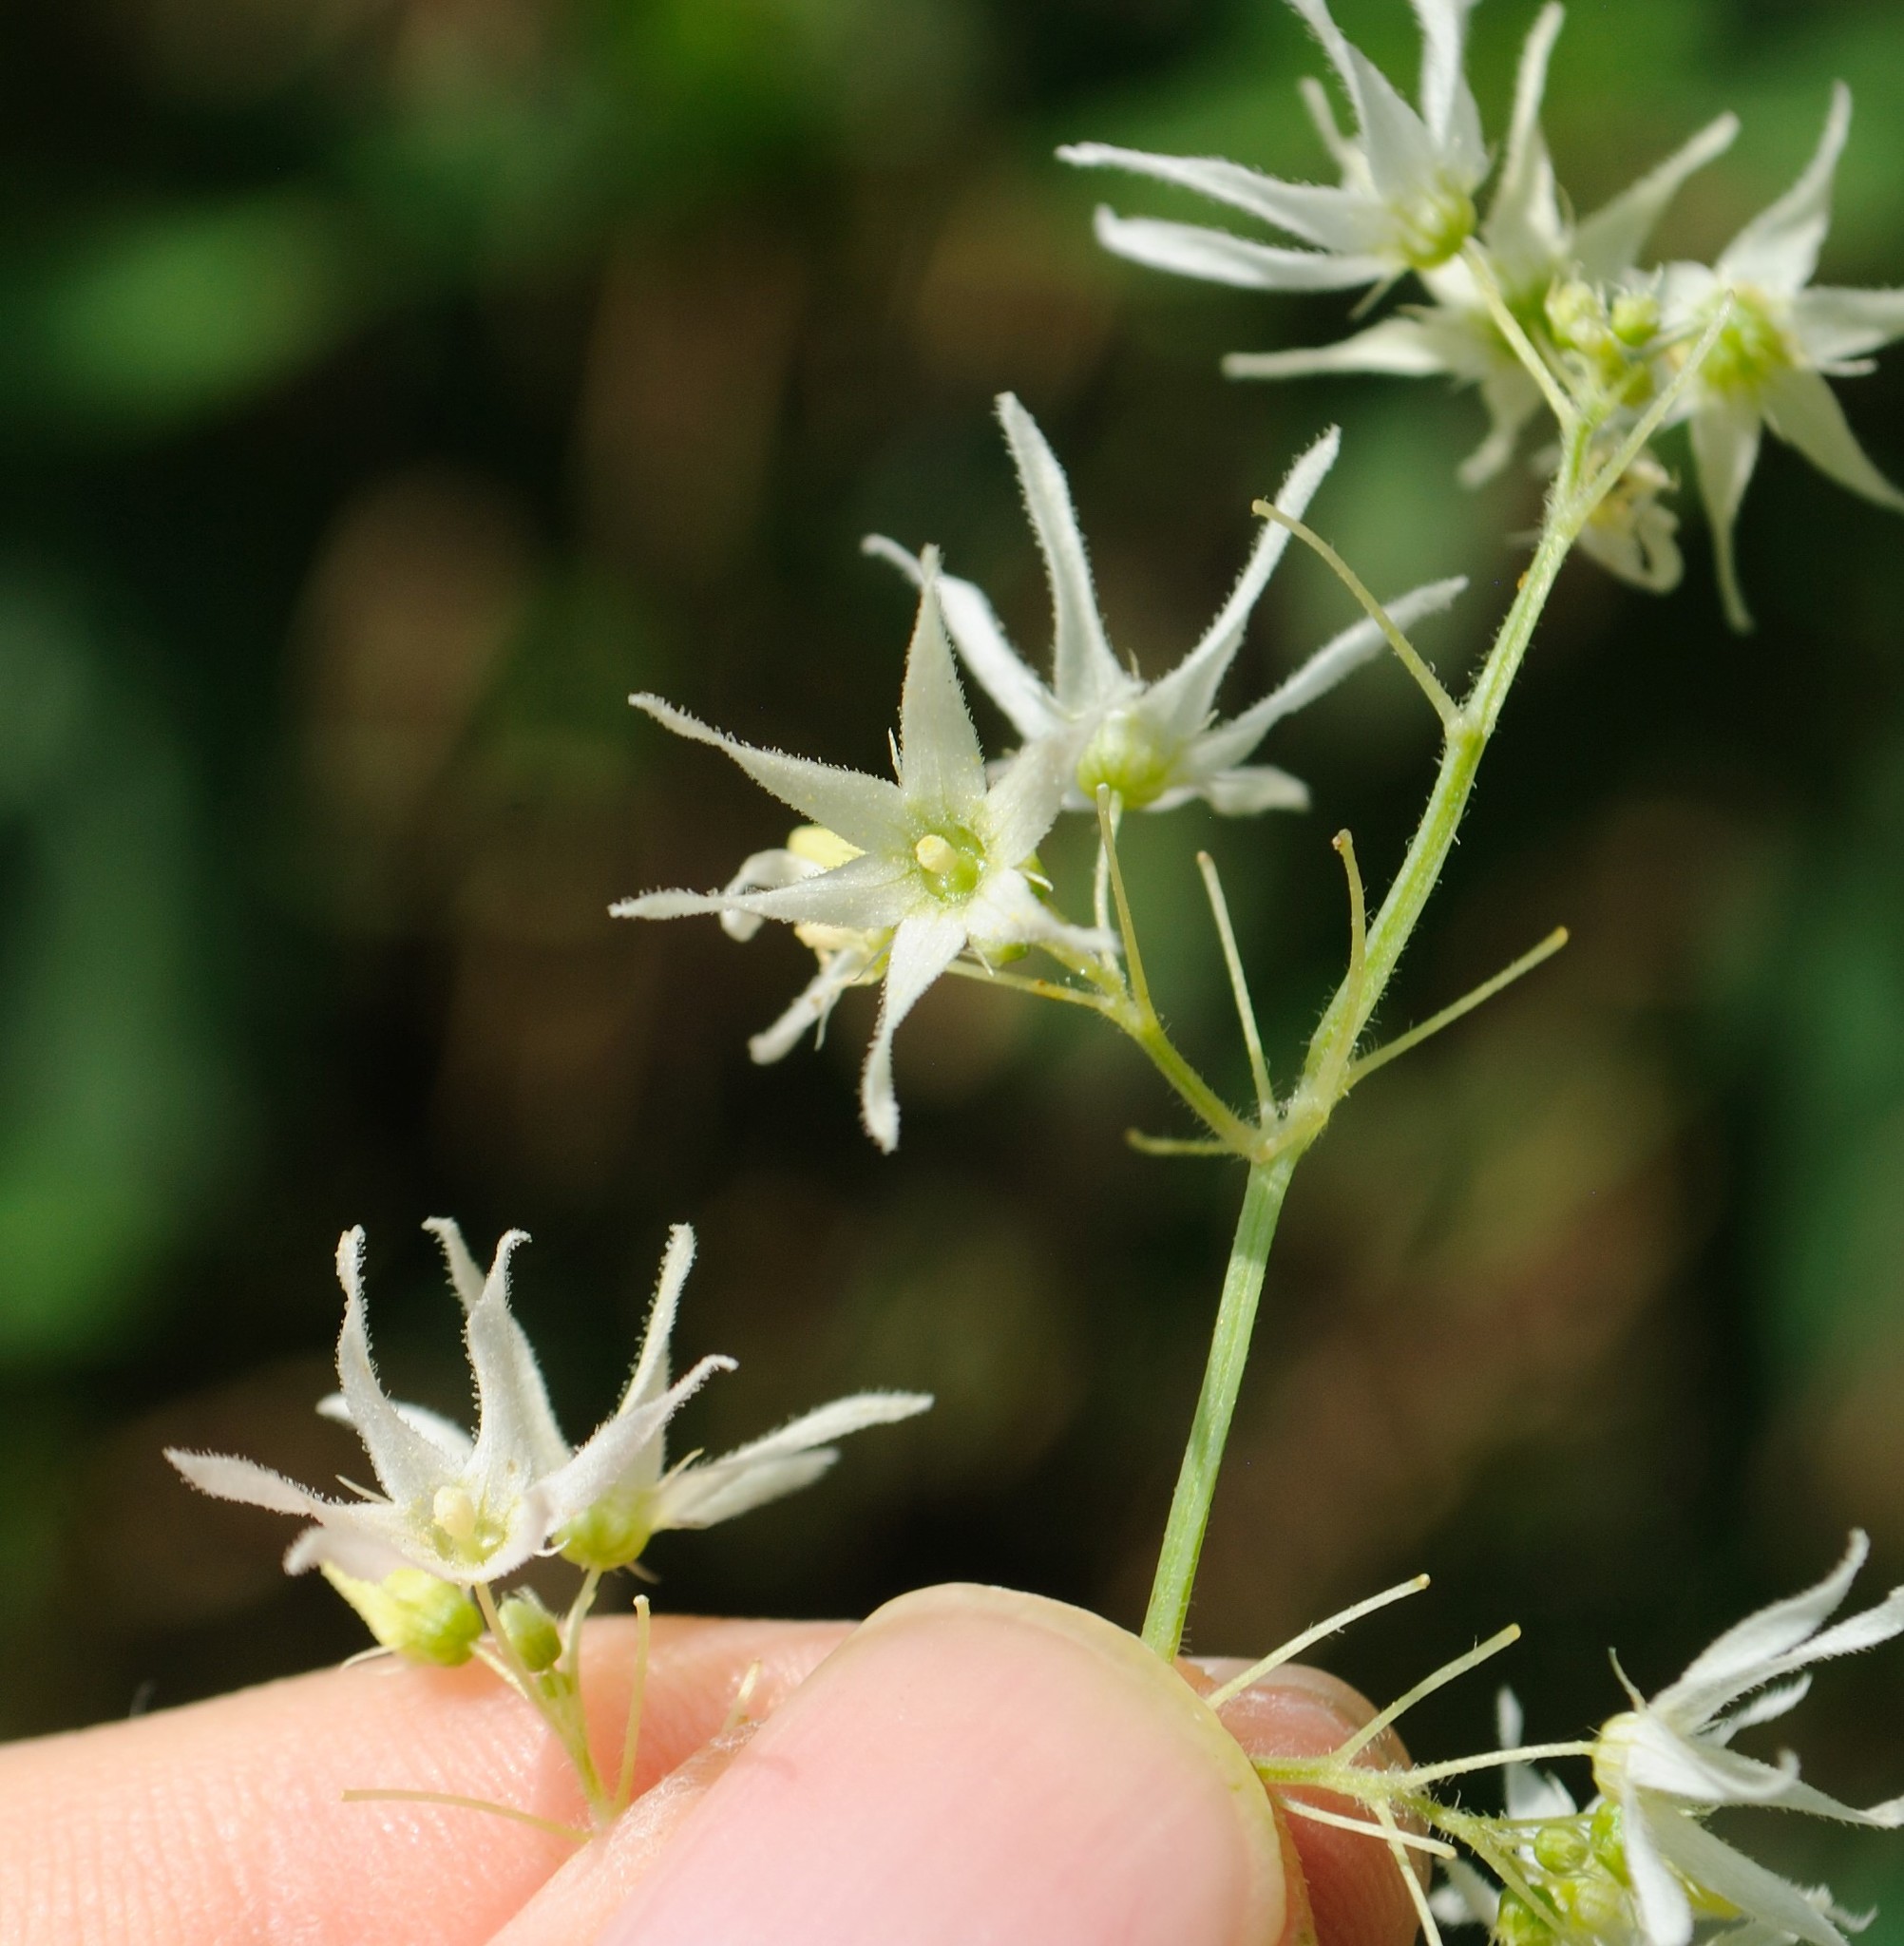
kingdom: Plantae
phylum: Tracheophyta
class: Magnoliopsida
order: Cucurbitales
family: Cucurbitaceae
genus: Echinocystis
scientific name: Echinocystis lobata
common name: Wild cucumber
